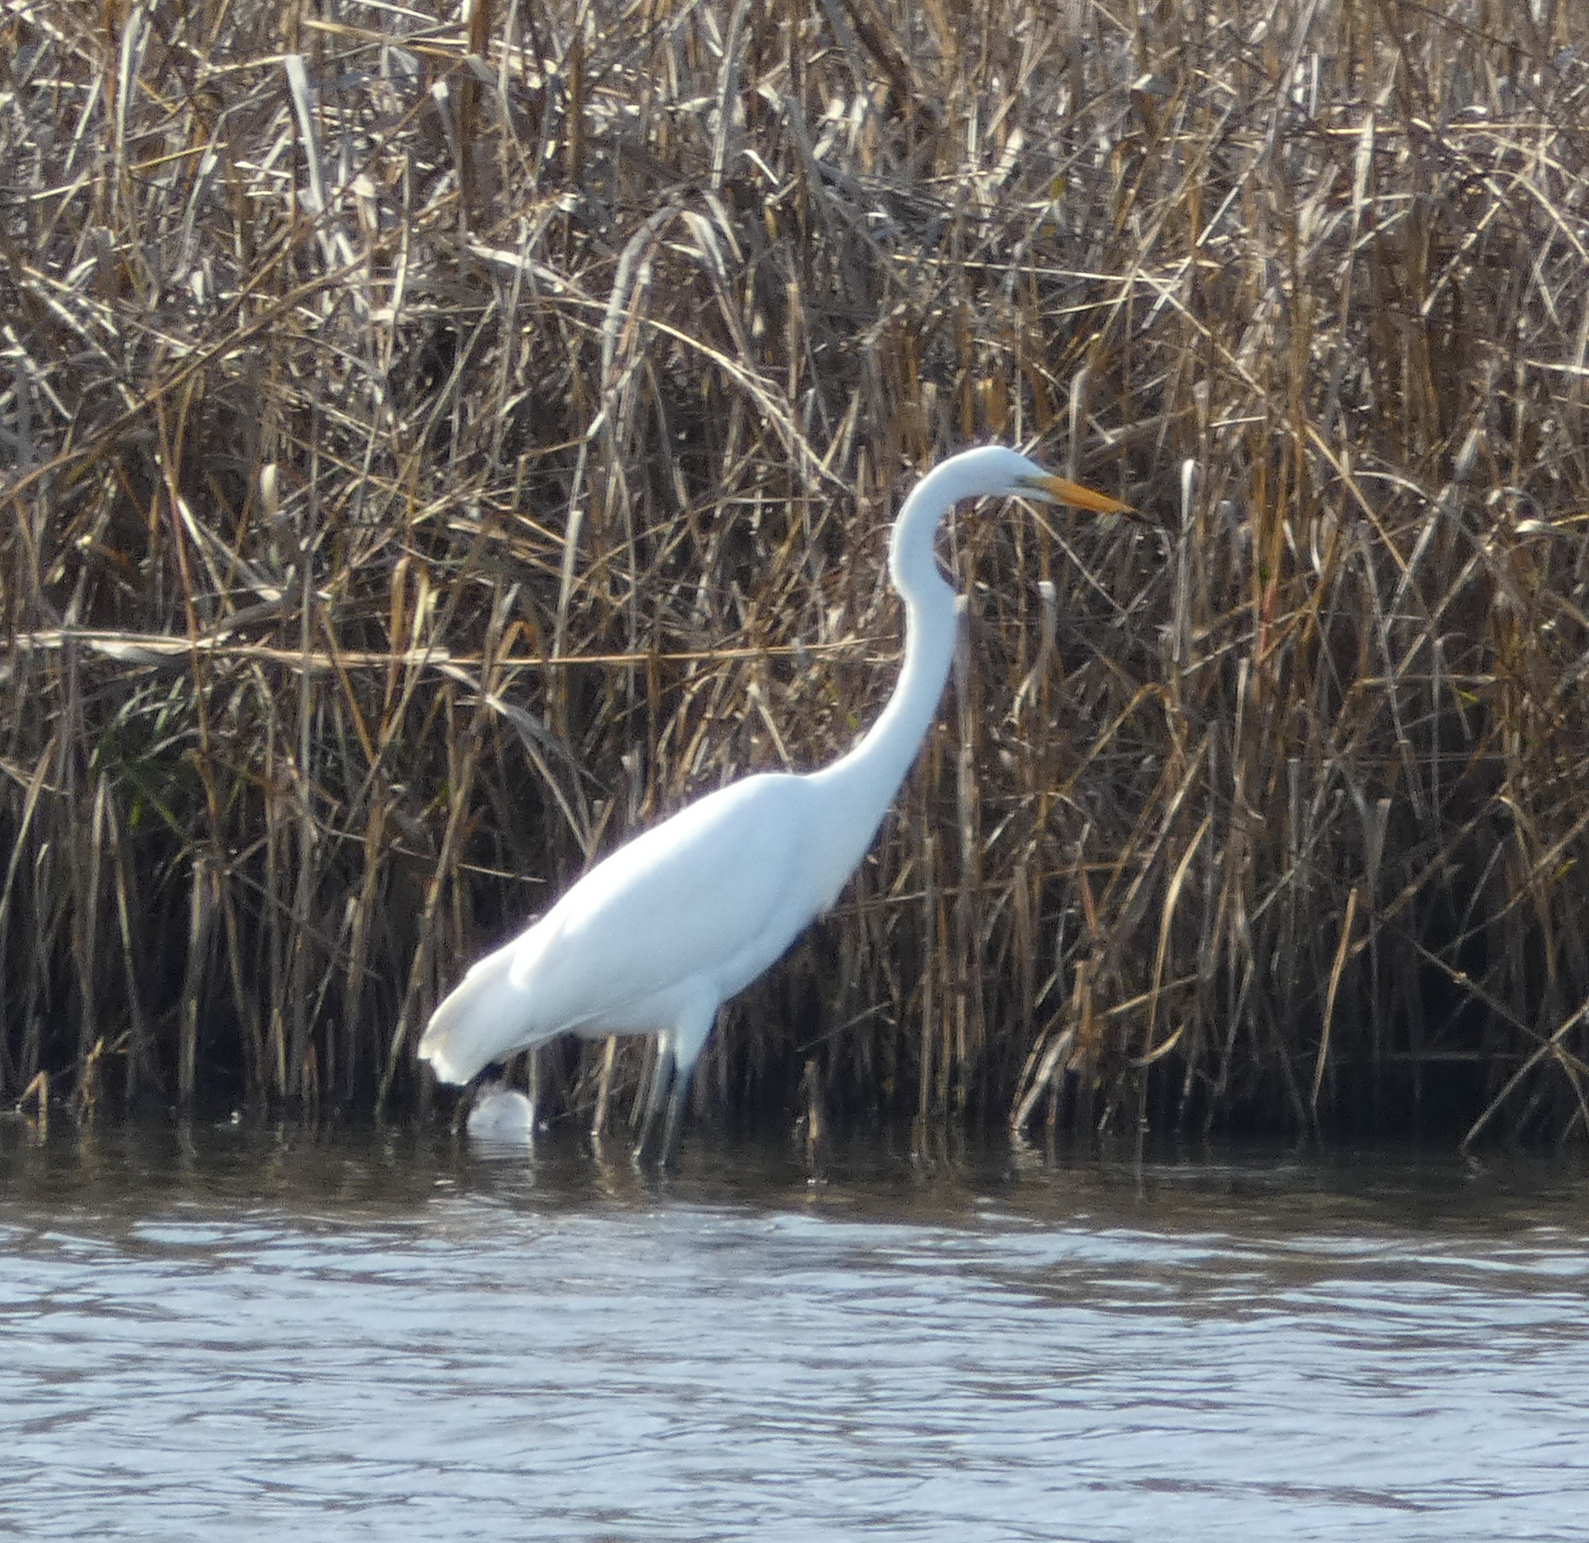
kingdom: Animalia
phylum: Chordata
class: Aves
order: Pelecaniformes
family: Ardeidae
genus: Ardea
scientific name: Ardea alba
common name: Great egret
